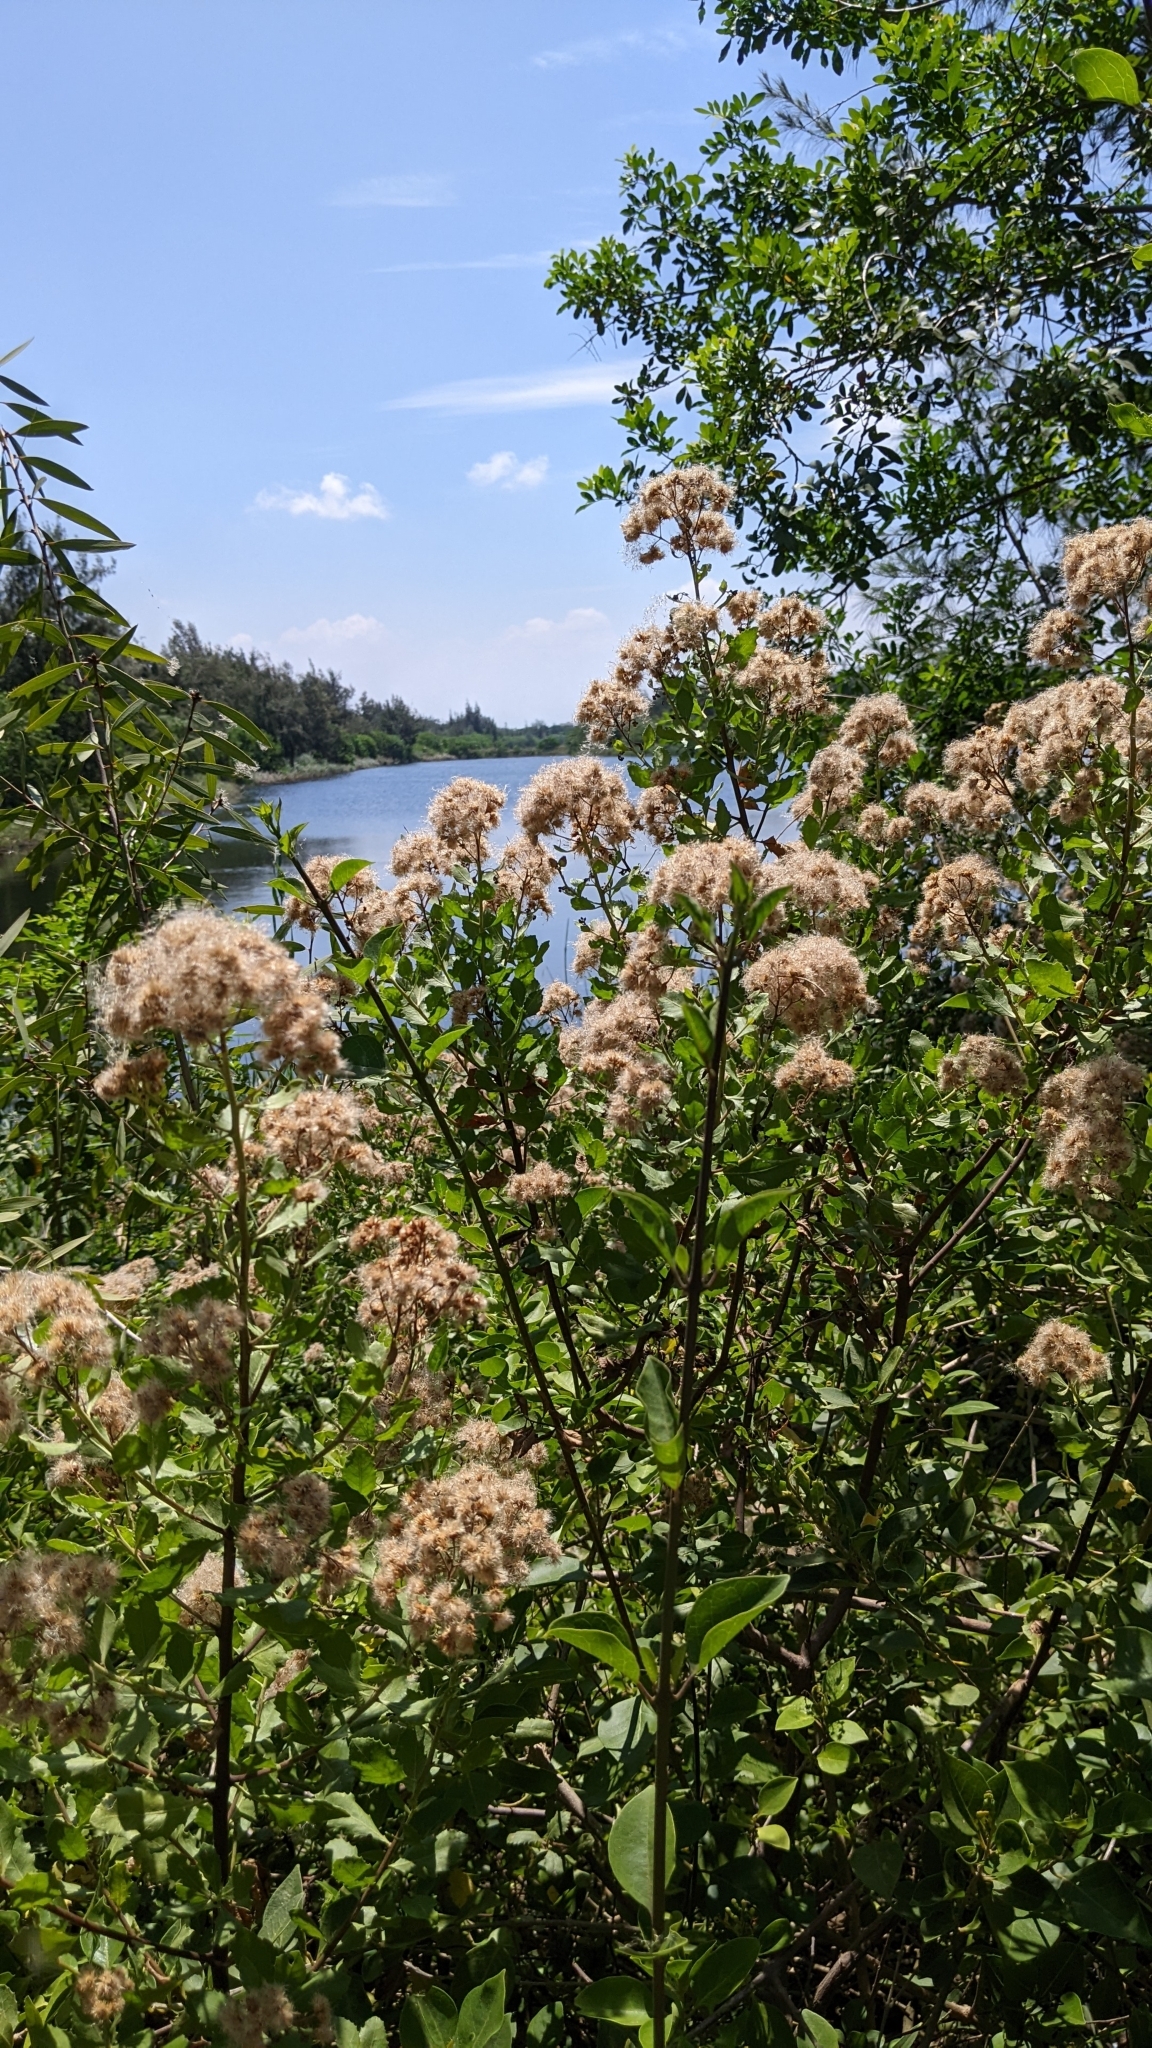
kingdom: Plantae
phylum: Tracheophyta
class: Magnoliopsida
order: Asterales
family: Asteraceae
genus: Pluchea
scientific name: Pluchea indica
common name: Indian fleabane
